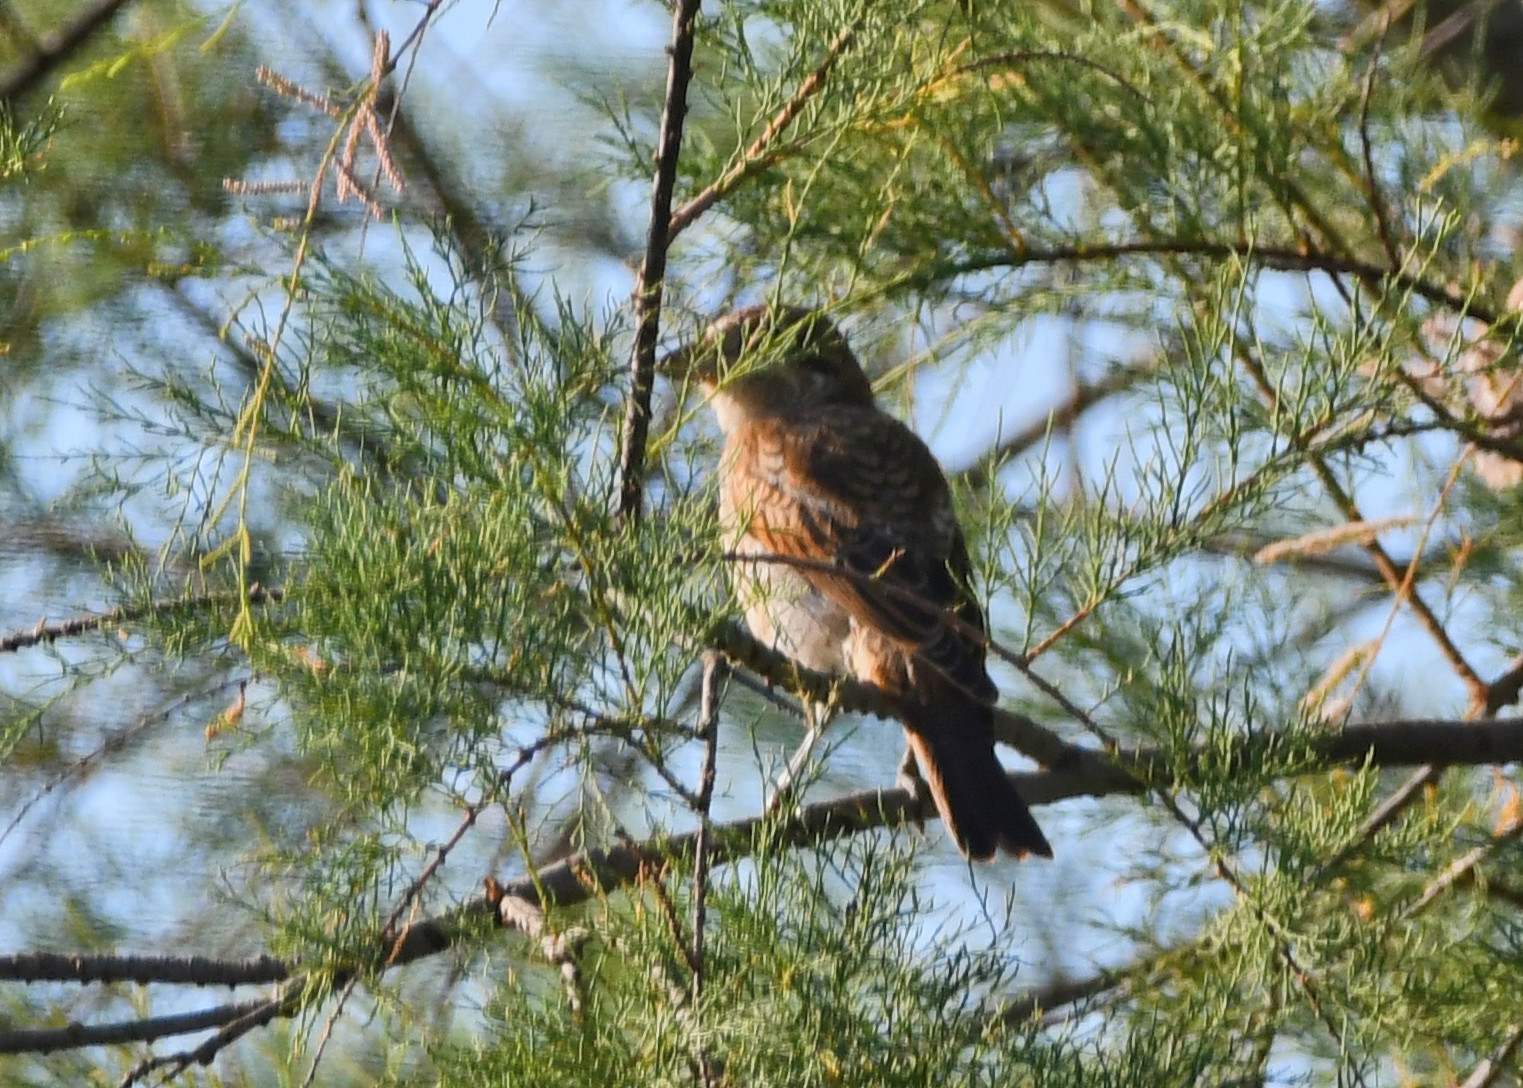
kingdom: Animalia
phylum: Chordata
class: Aves
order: Passeriformes
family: Laniidae
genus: Lanius
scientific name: Lanius senator
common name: Woodchat shrike
